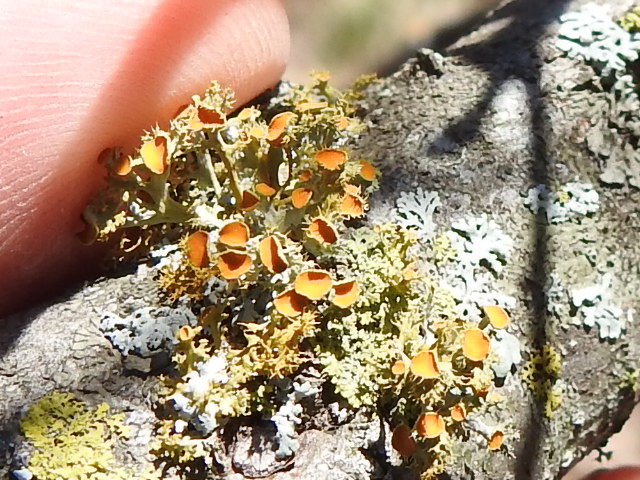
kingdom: Fungi
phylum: Ascomycota
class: Lecanoromycetes
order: Teloschistales
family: Teloschistaceae
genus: Niorma
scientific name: Niorma chrysophthalma
